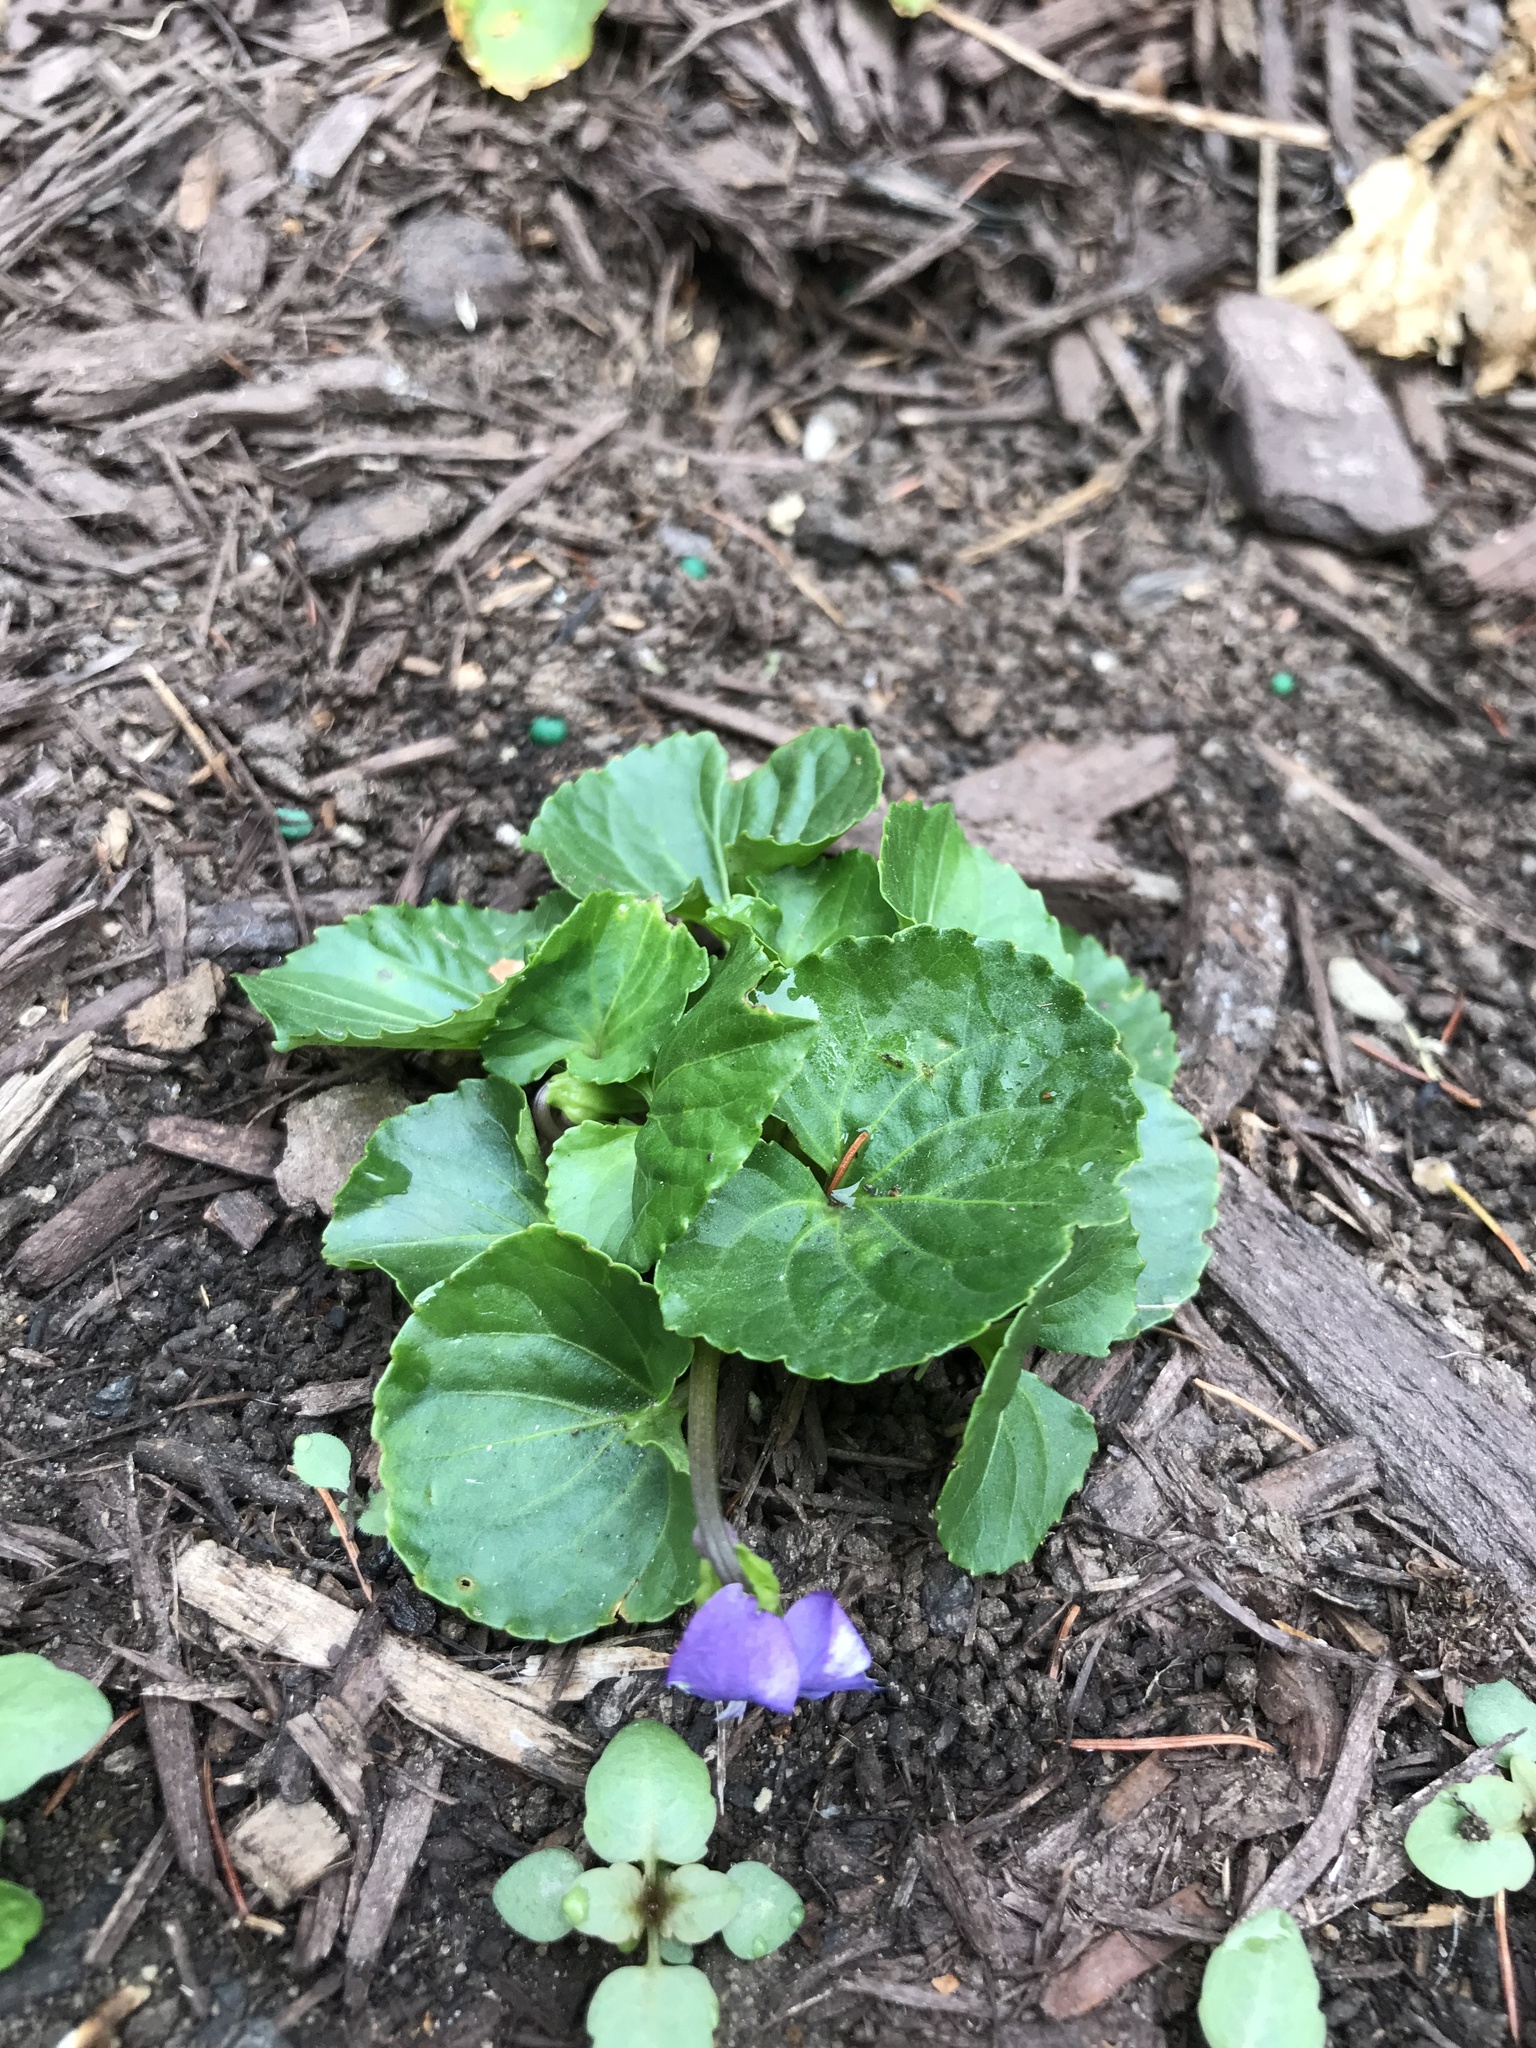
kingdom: Plantae
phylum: Tracheophyta
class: Magnoliopsida
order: Malpighiales
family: Violaceae
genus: Viola
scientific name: Viola sororia
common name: Dooryard violet
